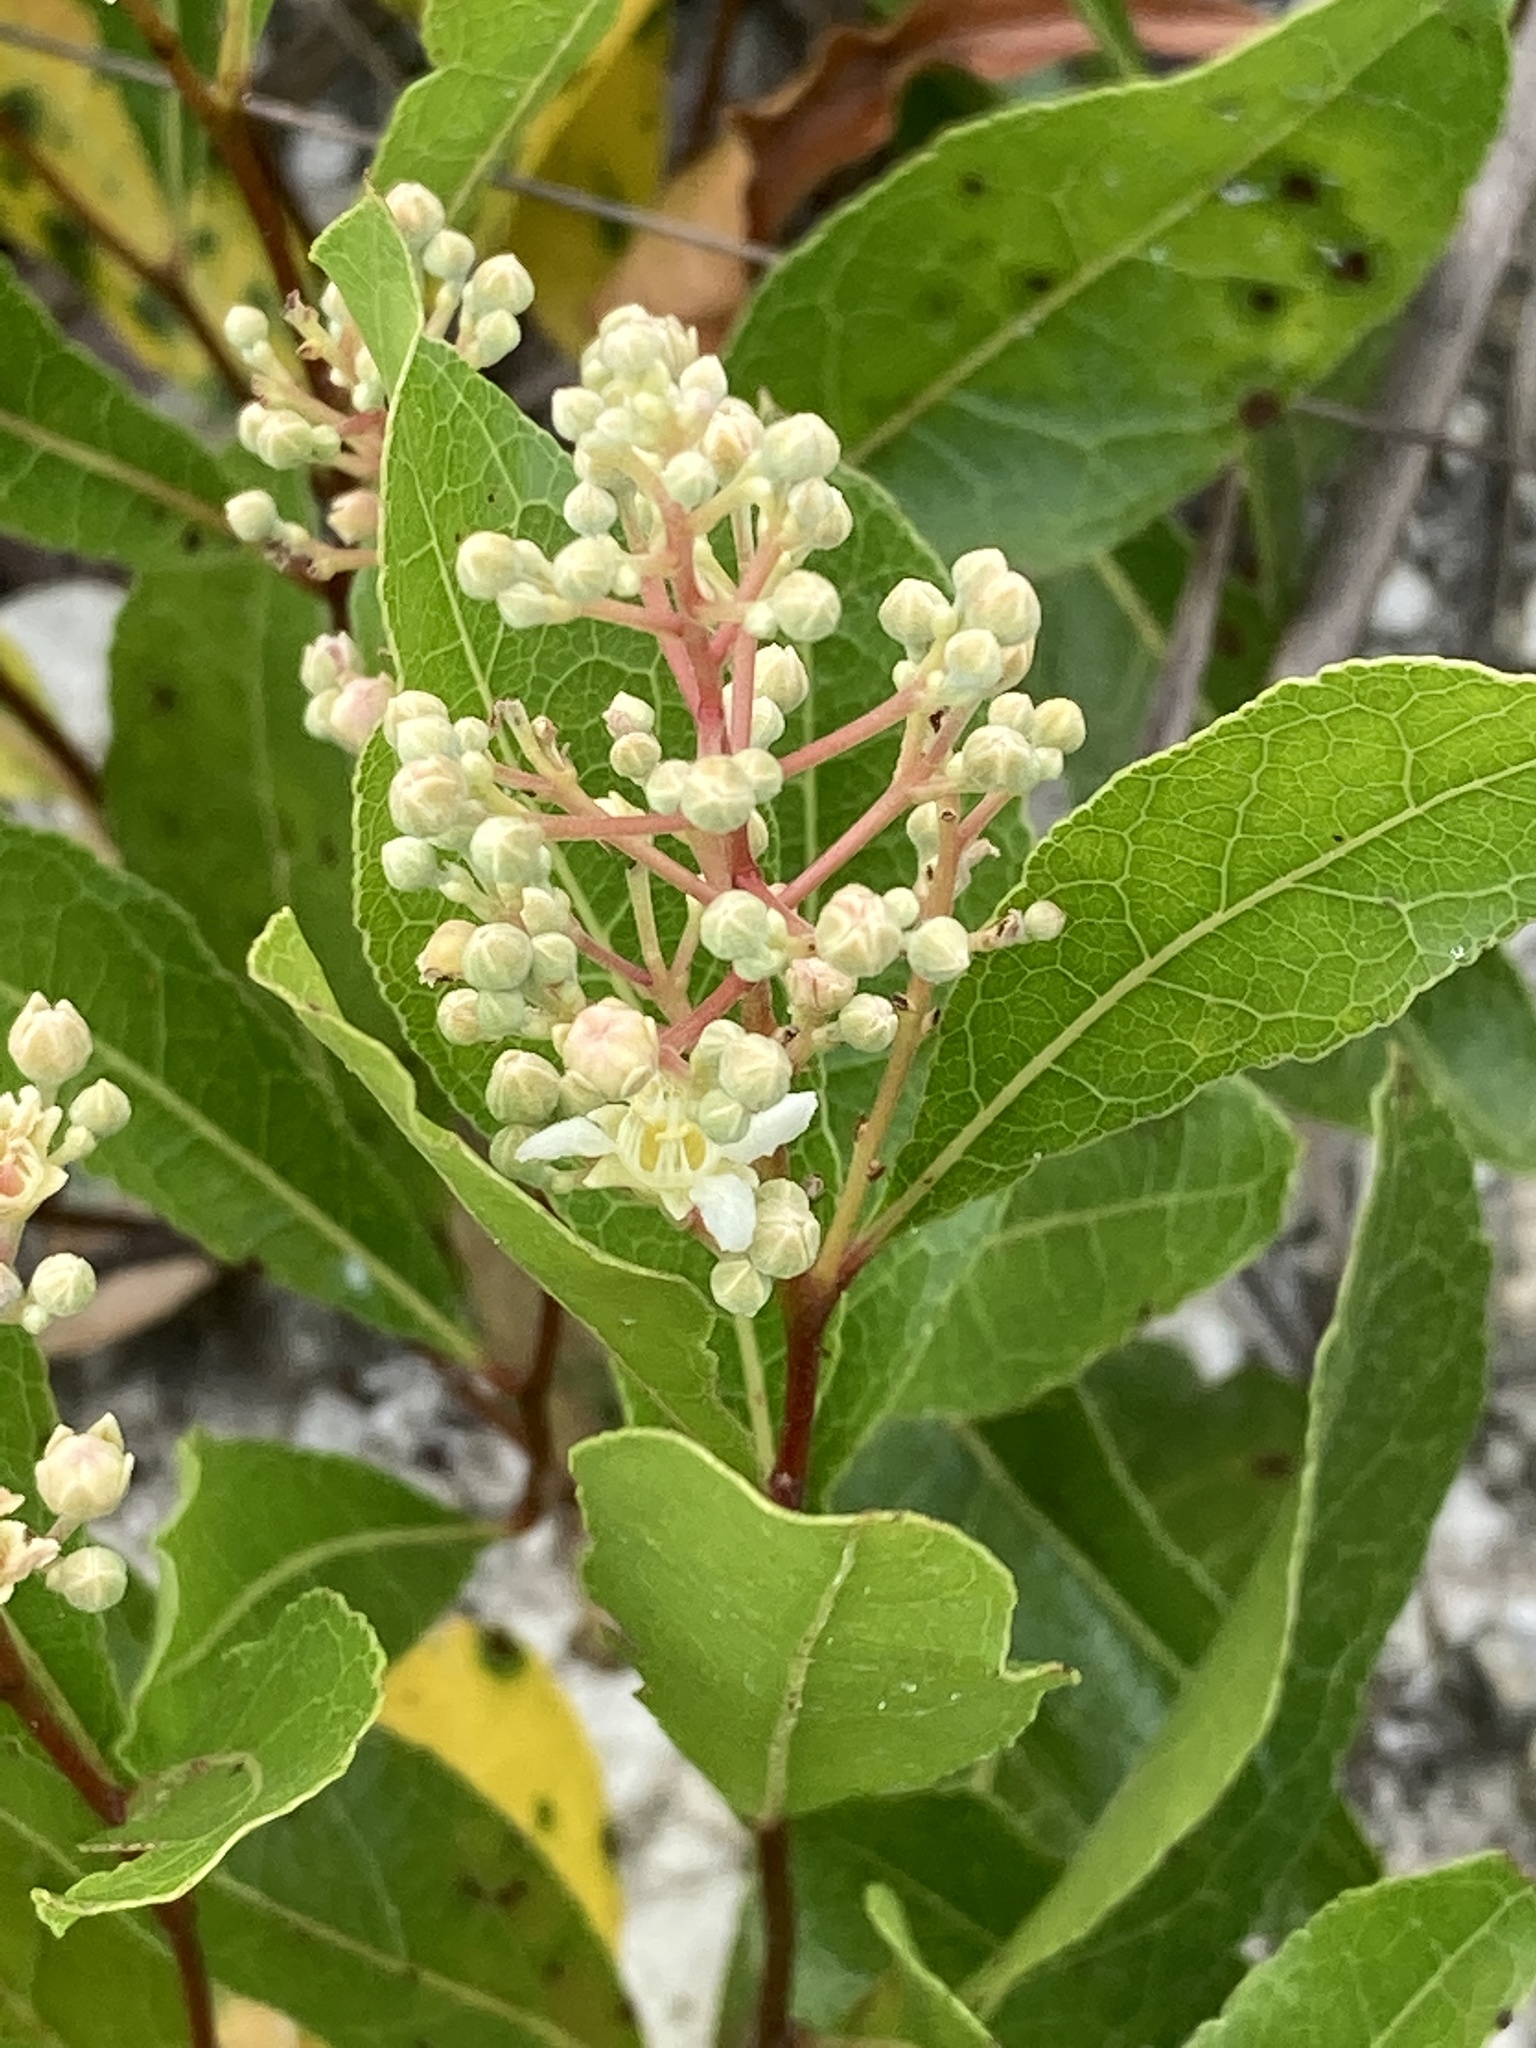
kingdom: Plantae
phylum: Tracheophyta
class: Magnoliopsida
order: Malpighiales
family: Chrysobalanaceae
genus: Geobalanus
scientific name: Geobalanus oblongifolius
